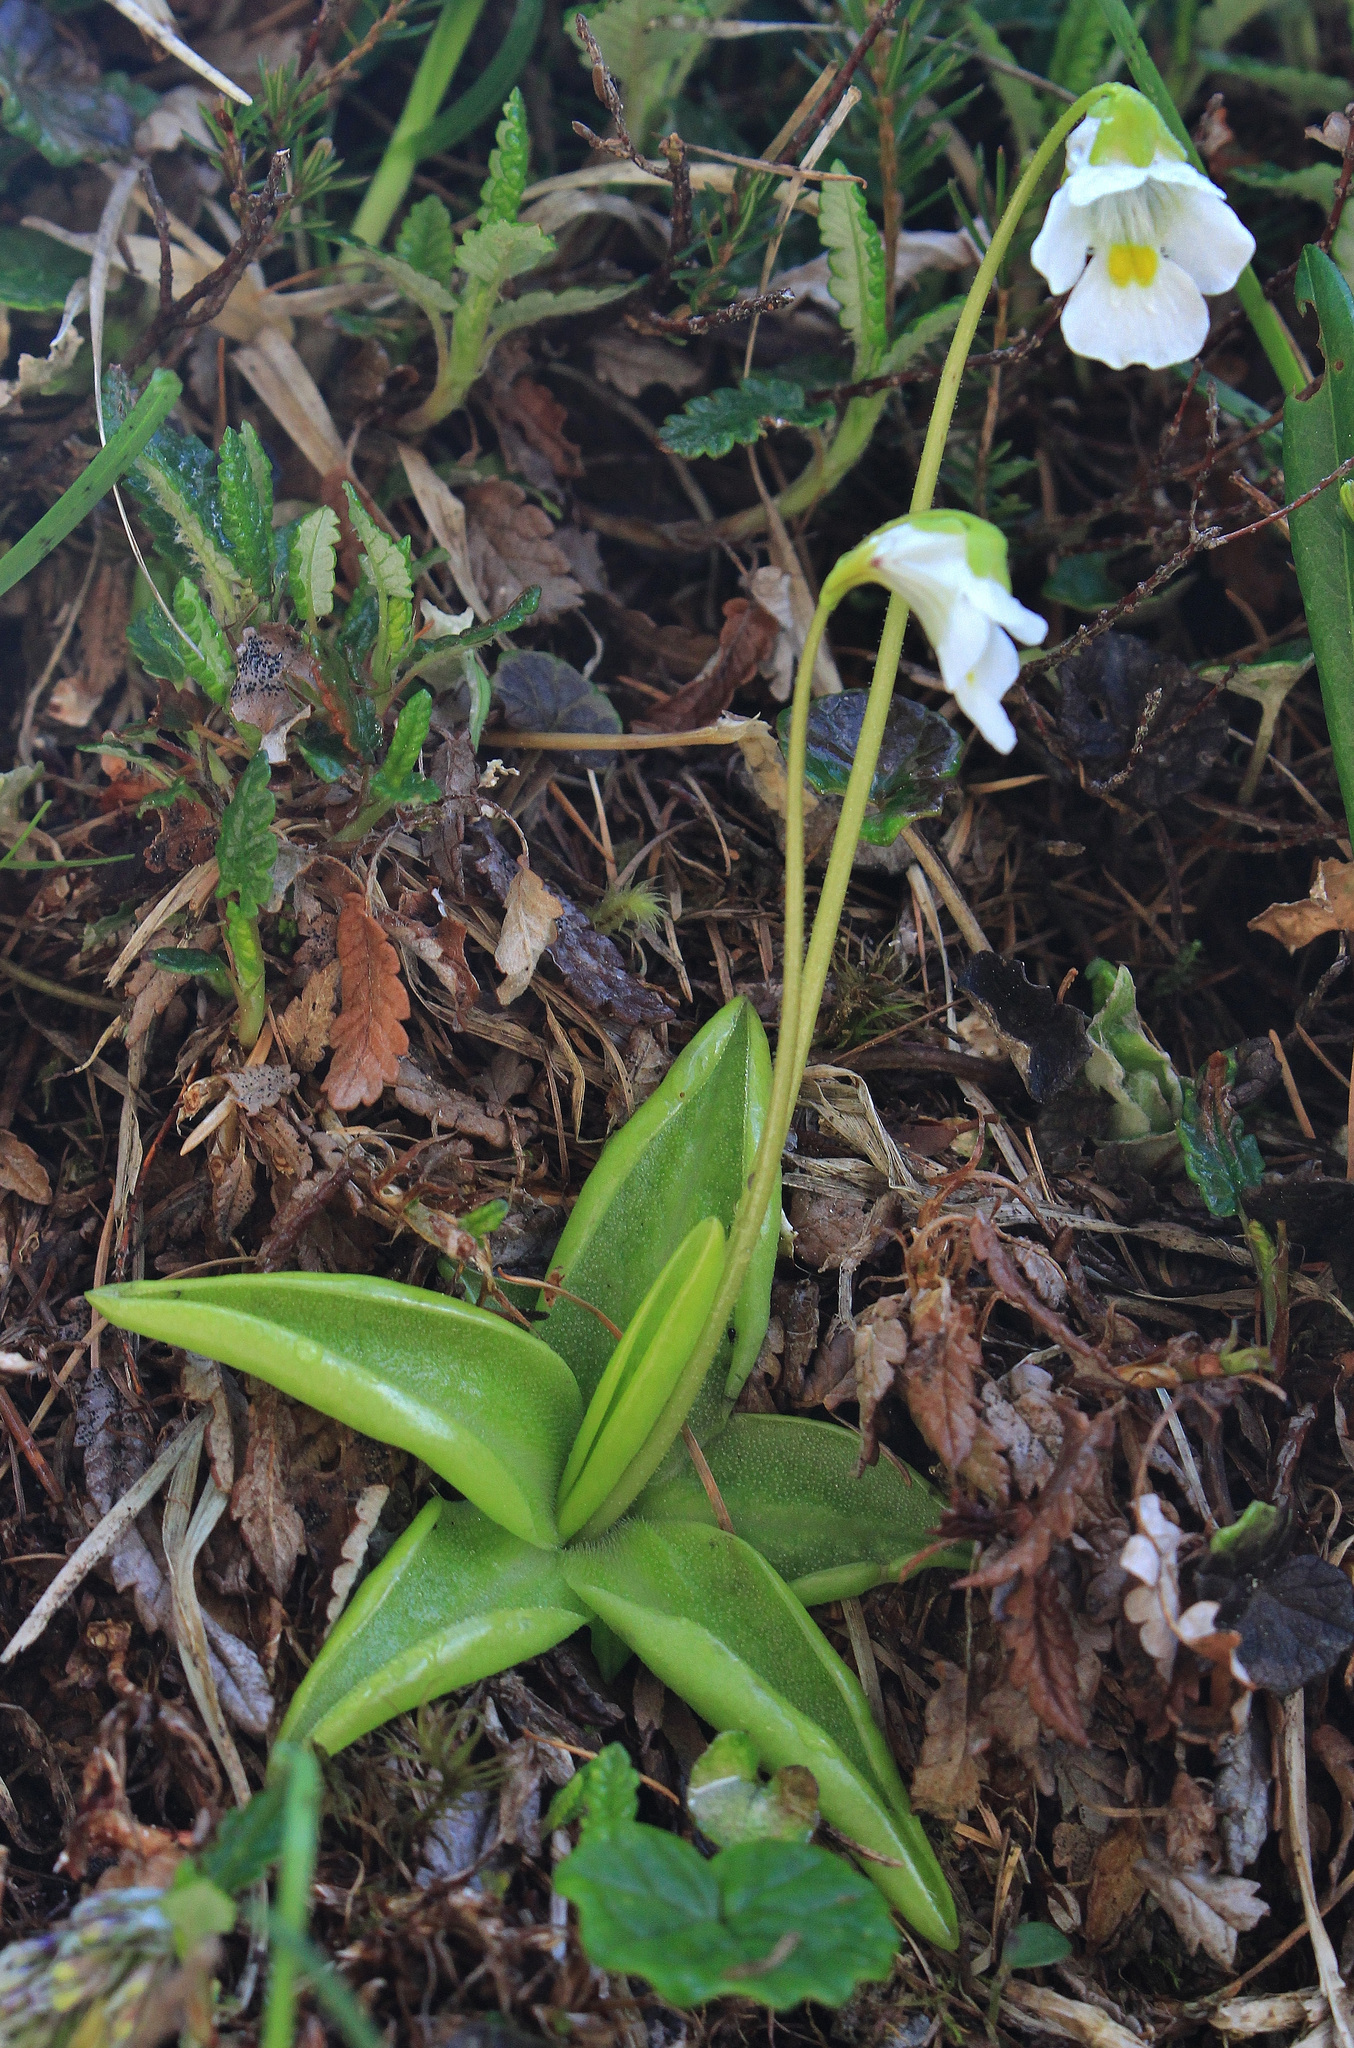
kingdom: Plantae
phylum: Tracheophyta
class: Magnoliopsida
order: Lamiales
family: Lentibulariaceae
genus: Pinguicula
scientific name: Pinguicula alpina
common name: Alpine butterwort
